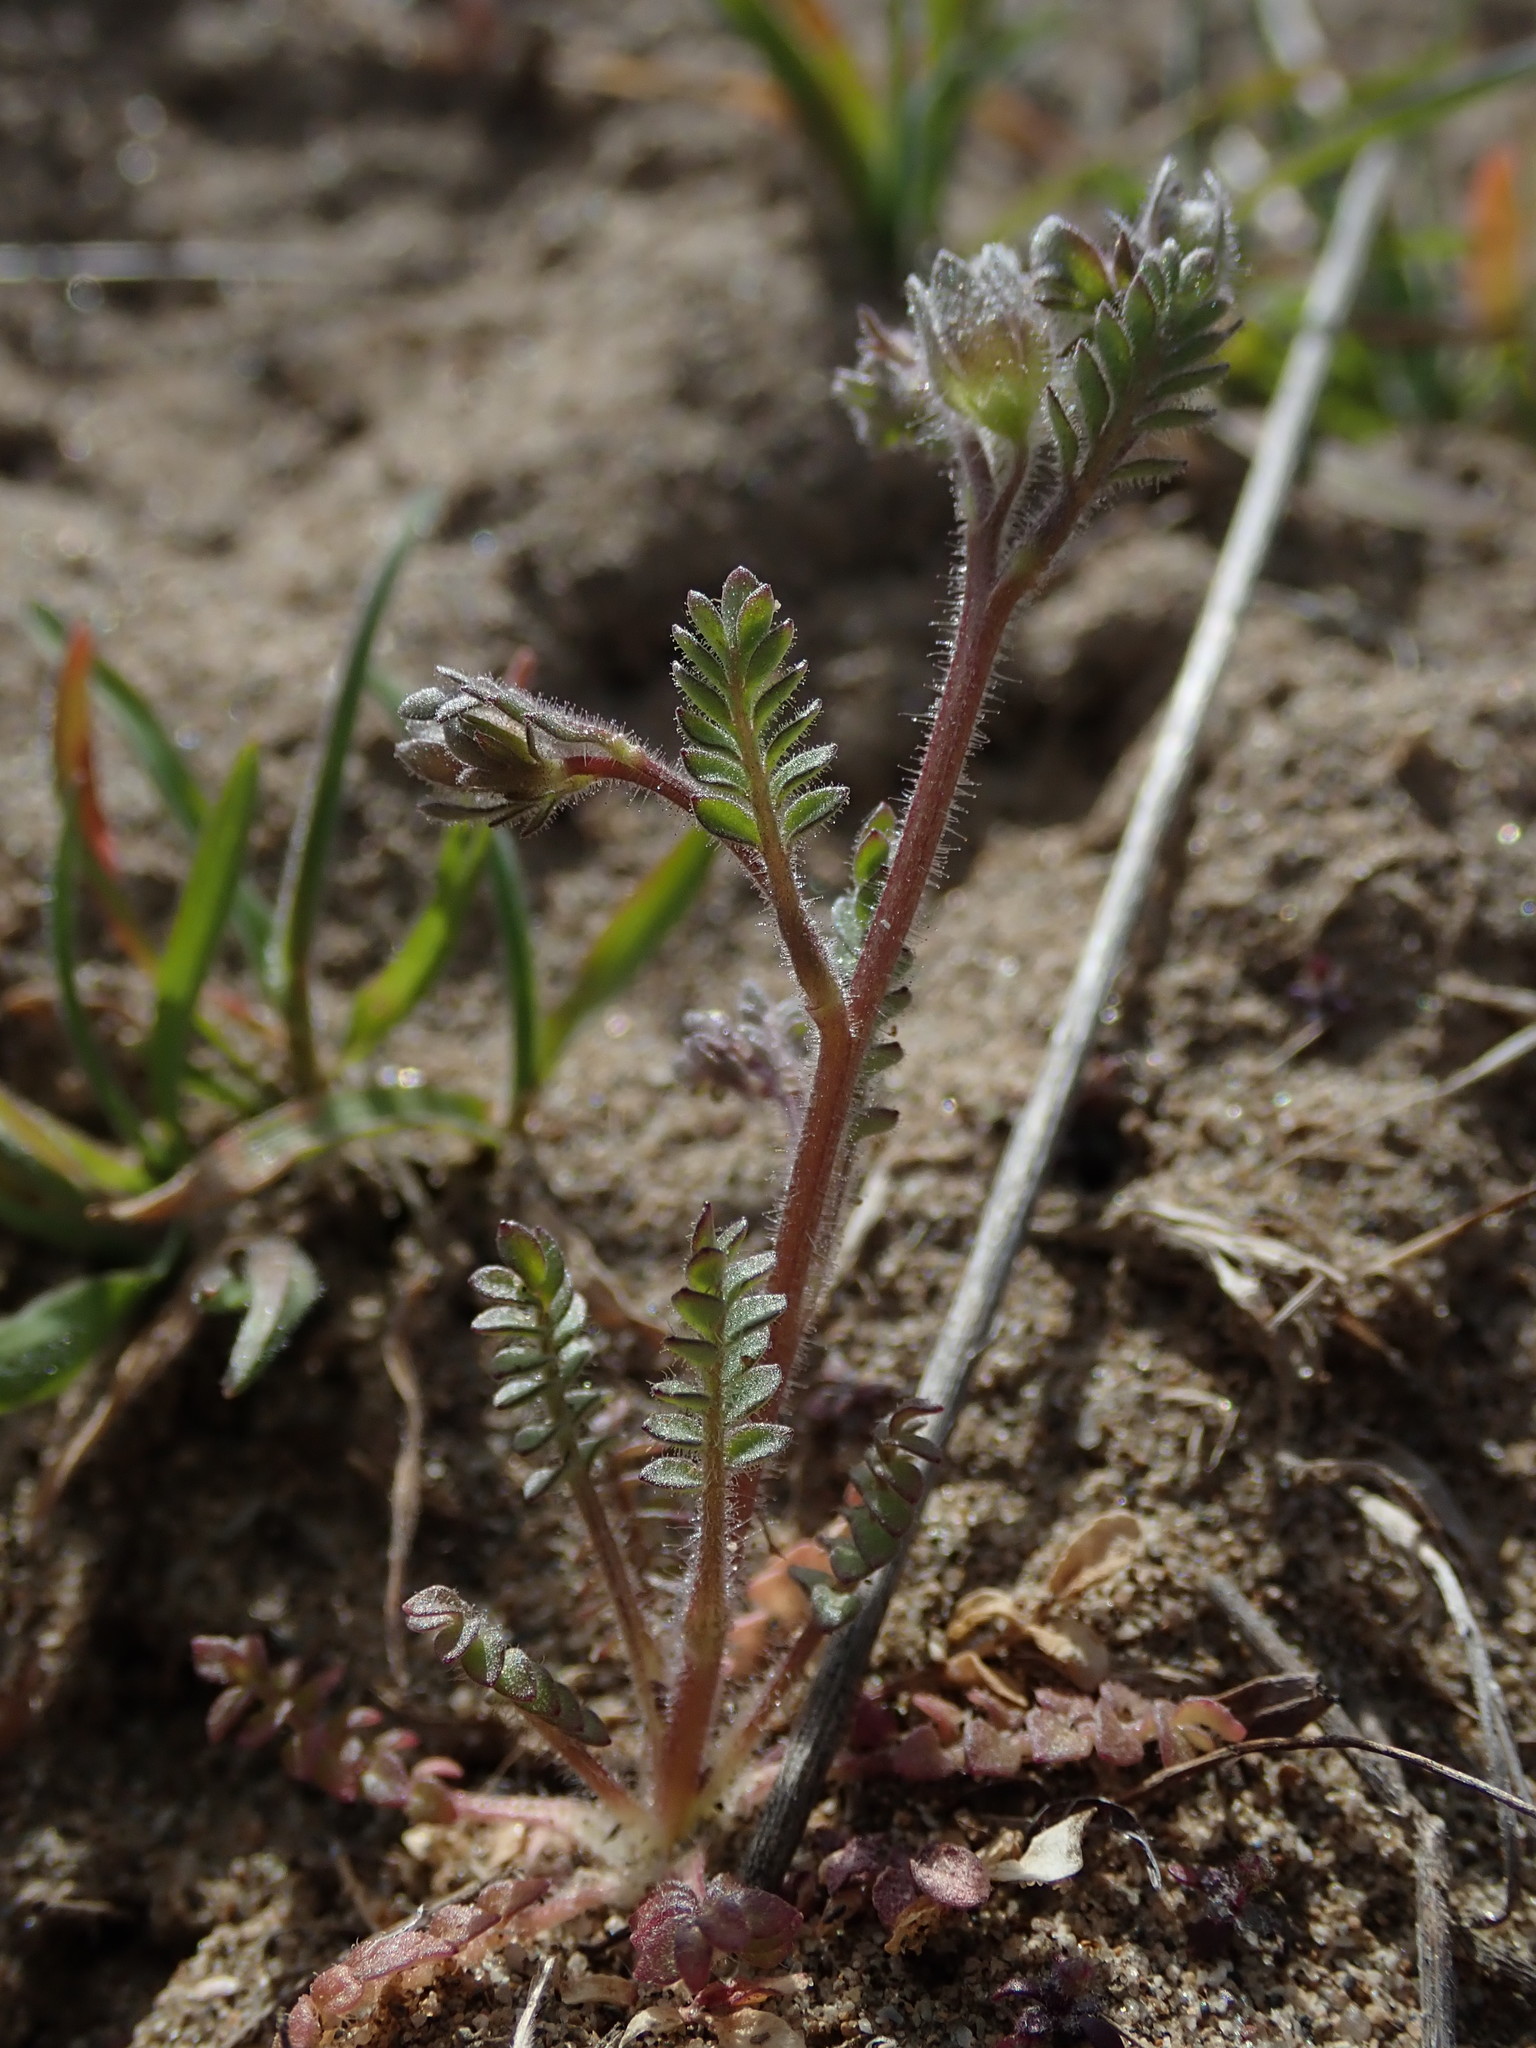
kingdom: Plantae
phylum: Tracheophyta
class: Magnoliopsida
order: Ericales
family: Polemoniaceae
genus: Polemonium
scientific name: Polemonium micranthum
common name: Annual jacob's-ladder
